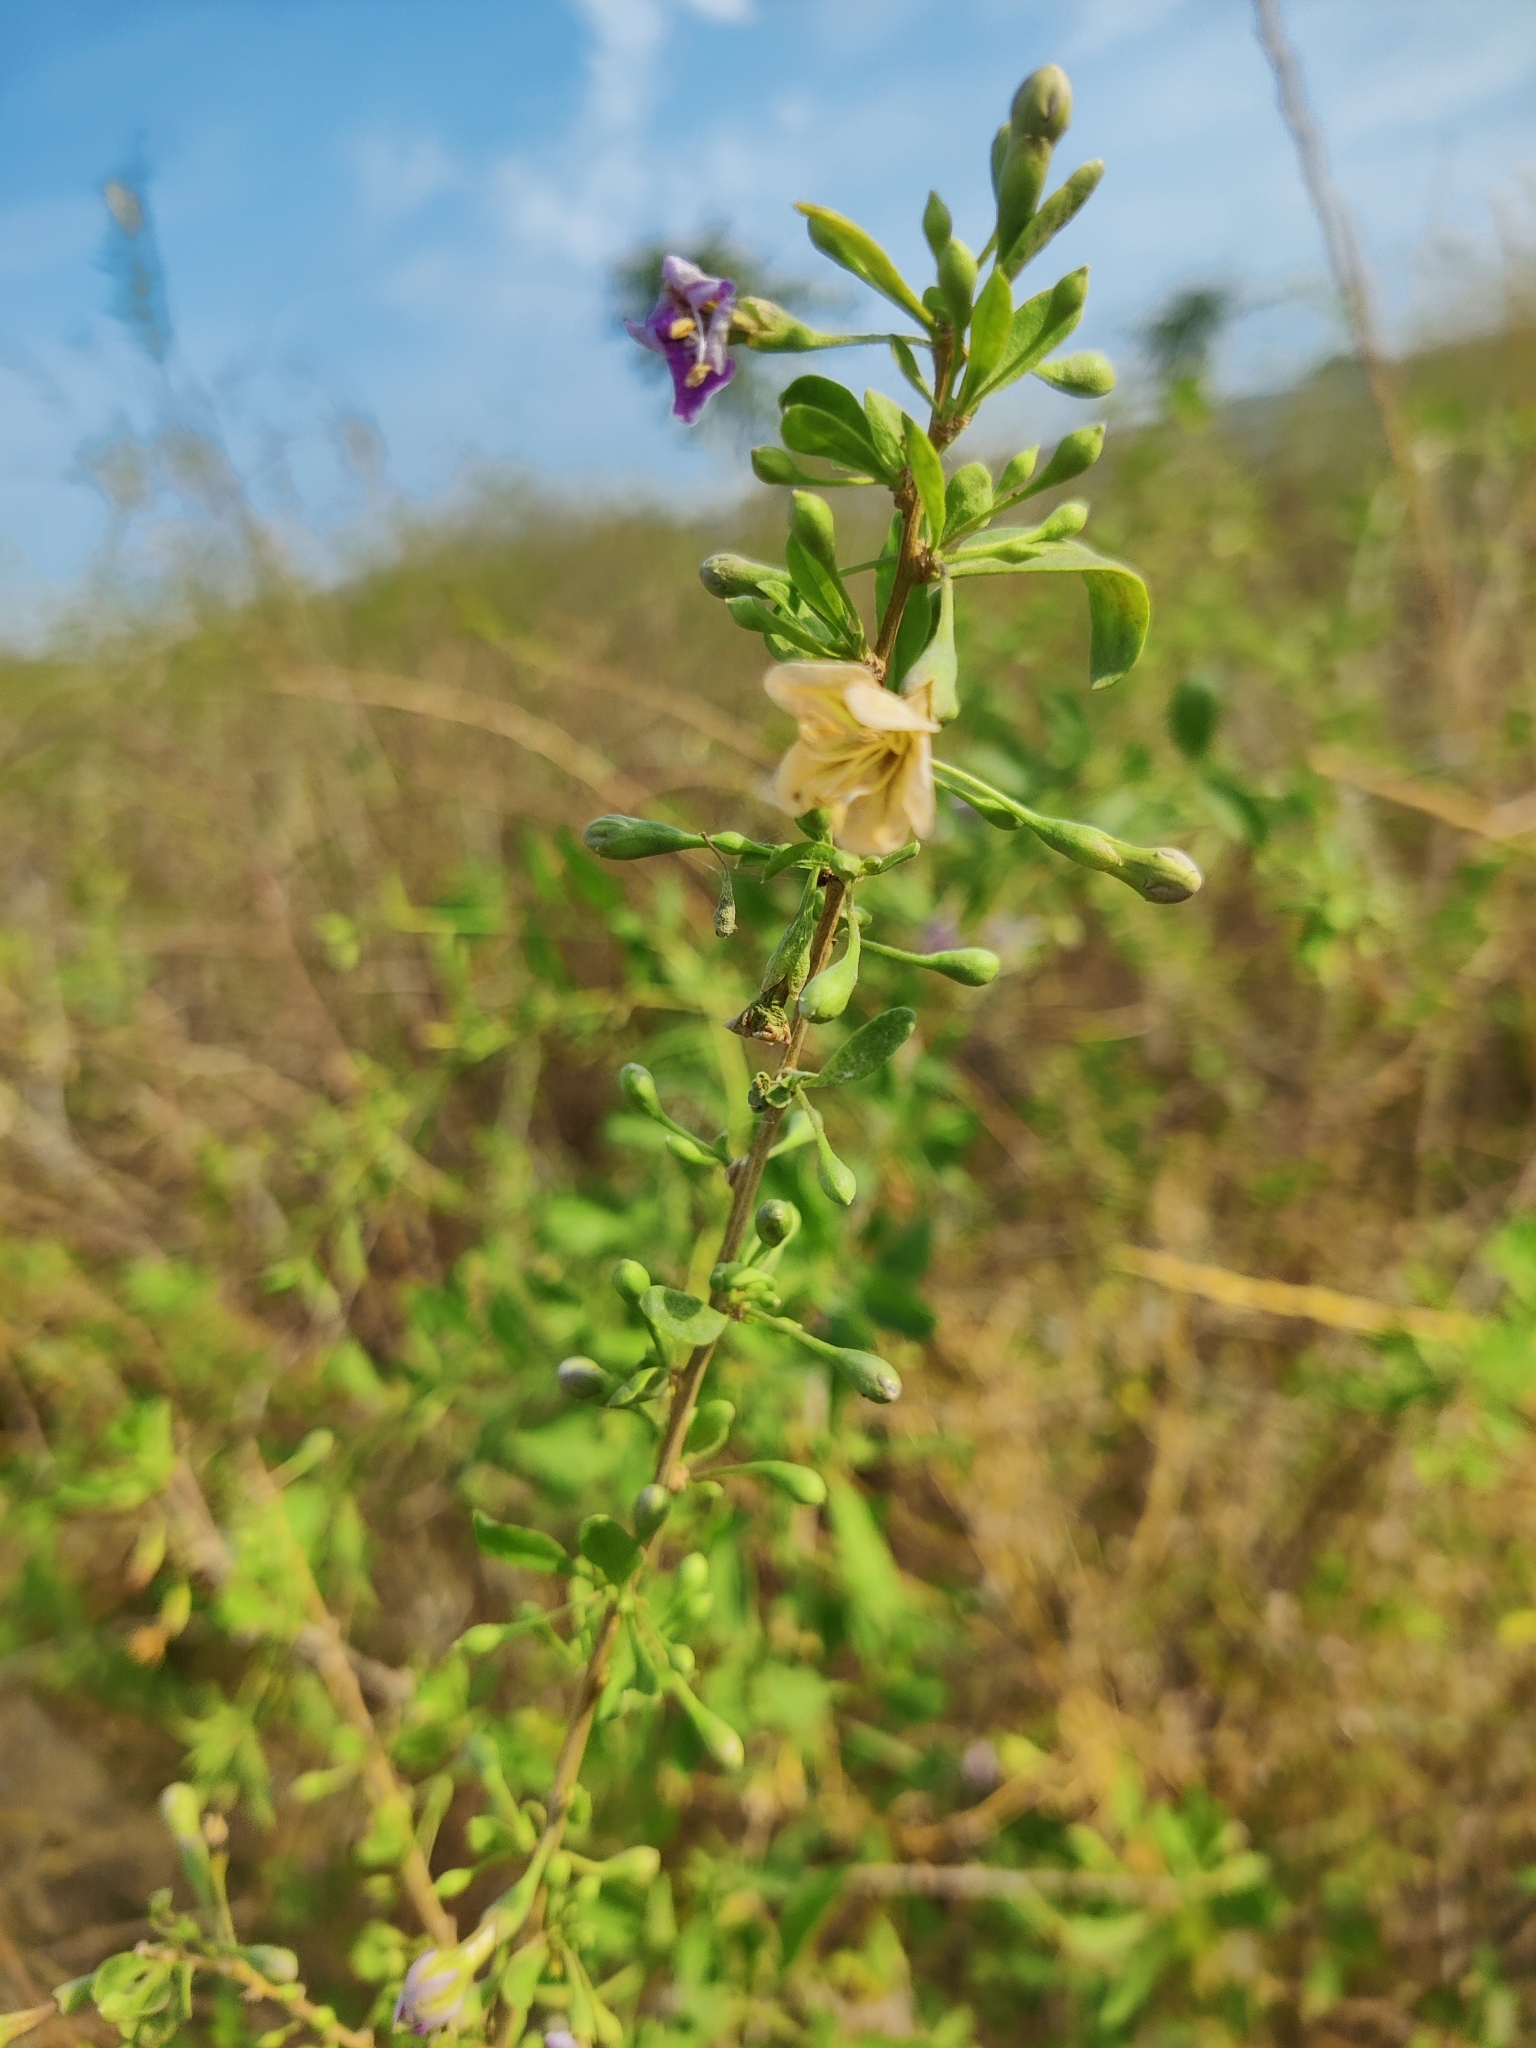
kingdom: Plantae
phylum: Tracheophyta
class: Magnoliopsida
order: Solanales
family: Solanaceae
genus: Lycium
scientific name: Lycium barbarum
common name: Duke of argyll's teaplant
